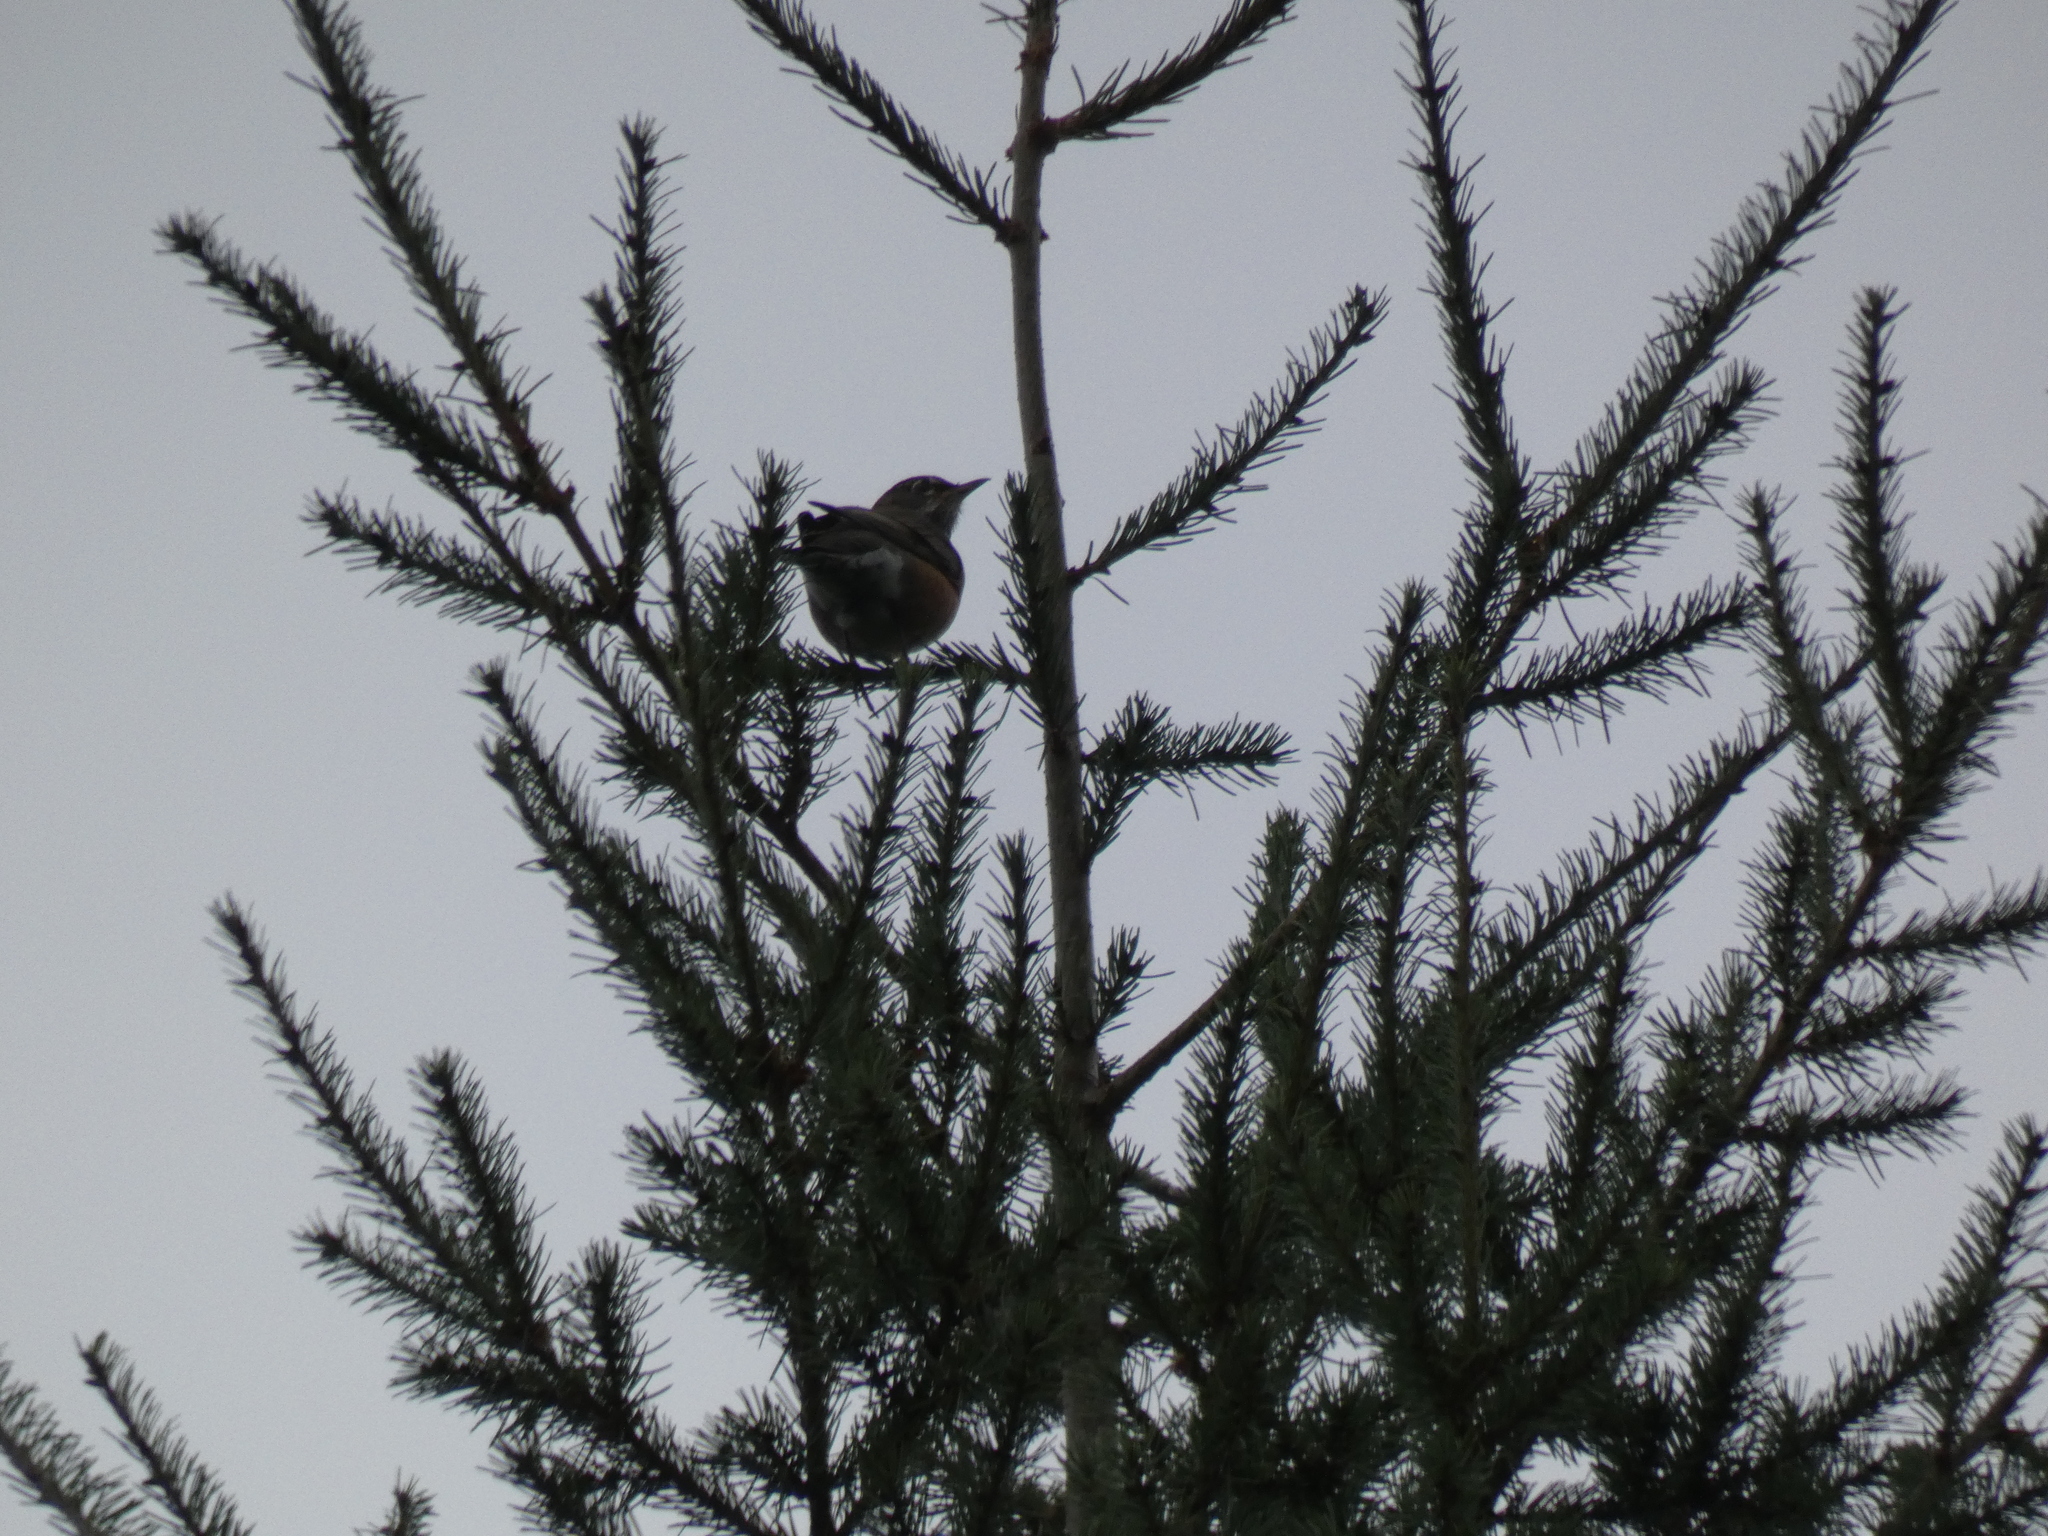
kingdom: Animalia
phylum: Chordata
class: Aves
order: Passeriformes
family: Turdidae
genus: Turdus
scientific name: Turdus migratorius
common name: American robin
